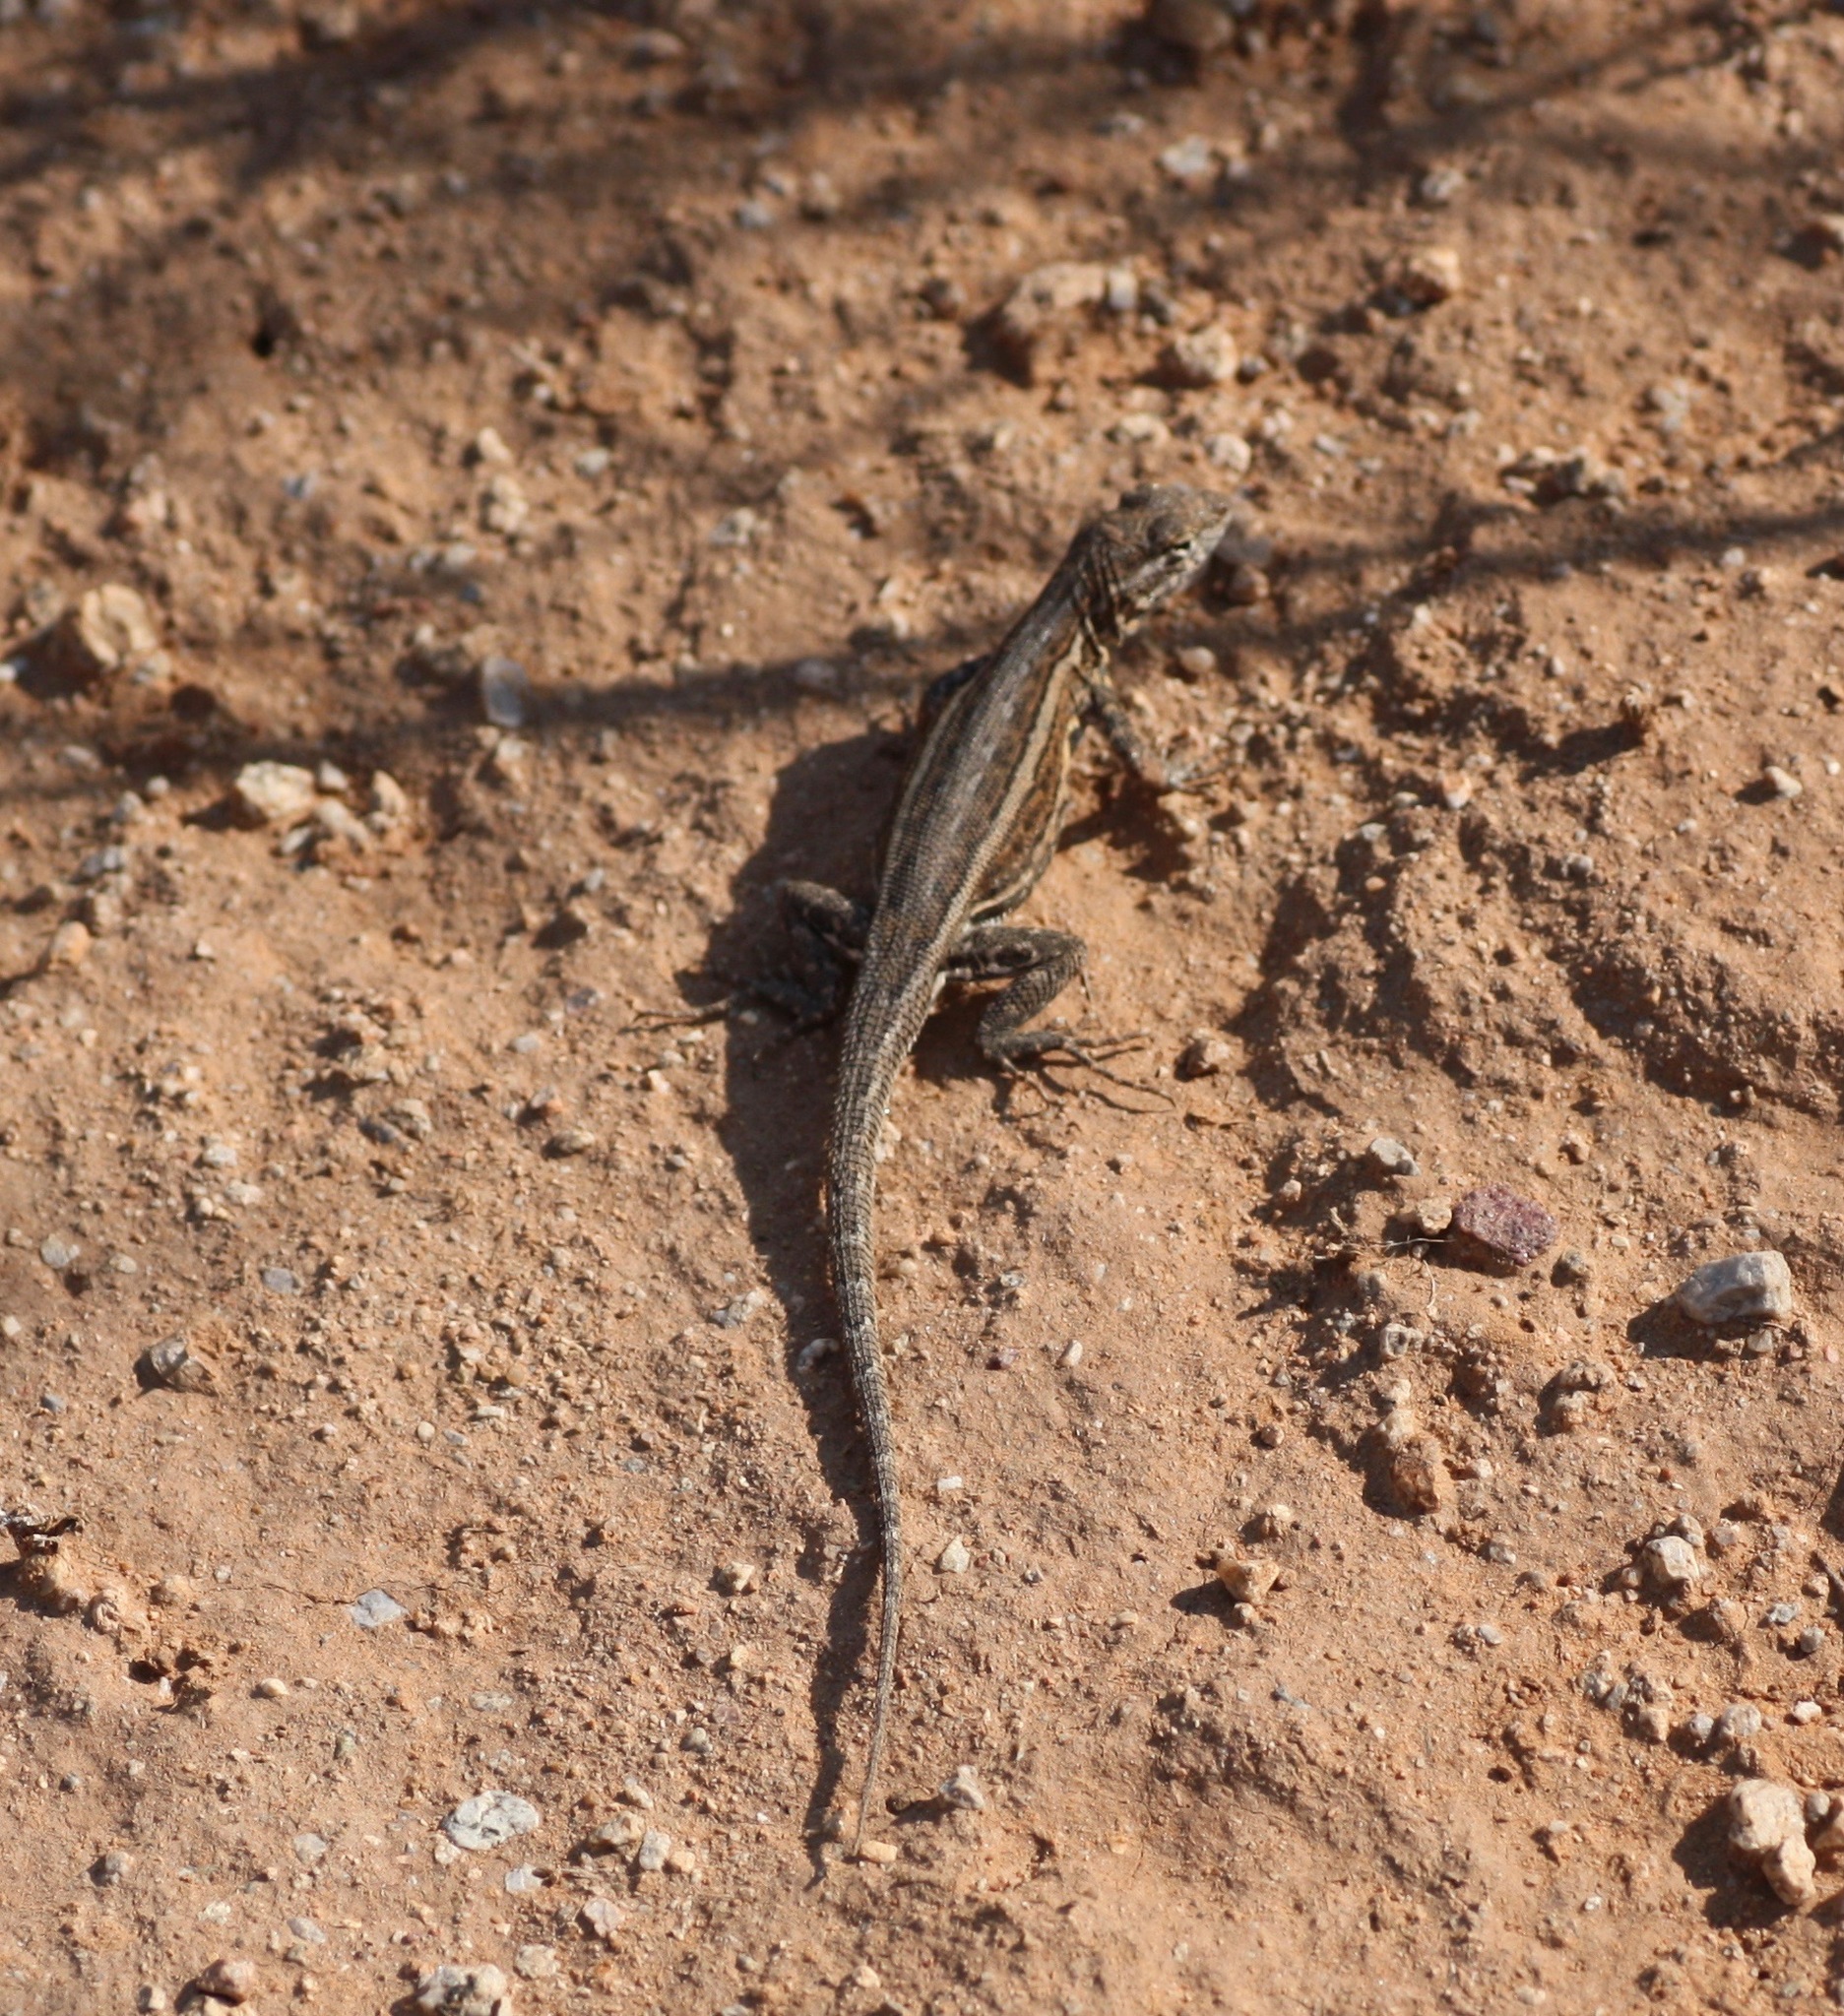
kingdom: Animalia
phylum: Chordata
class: Squamata
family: Phrynosomatidae
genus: Uta
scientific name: Uta stansburiana
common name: Side-blotched lizard
